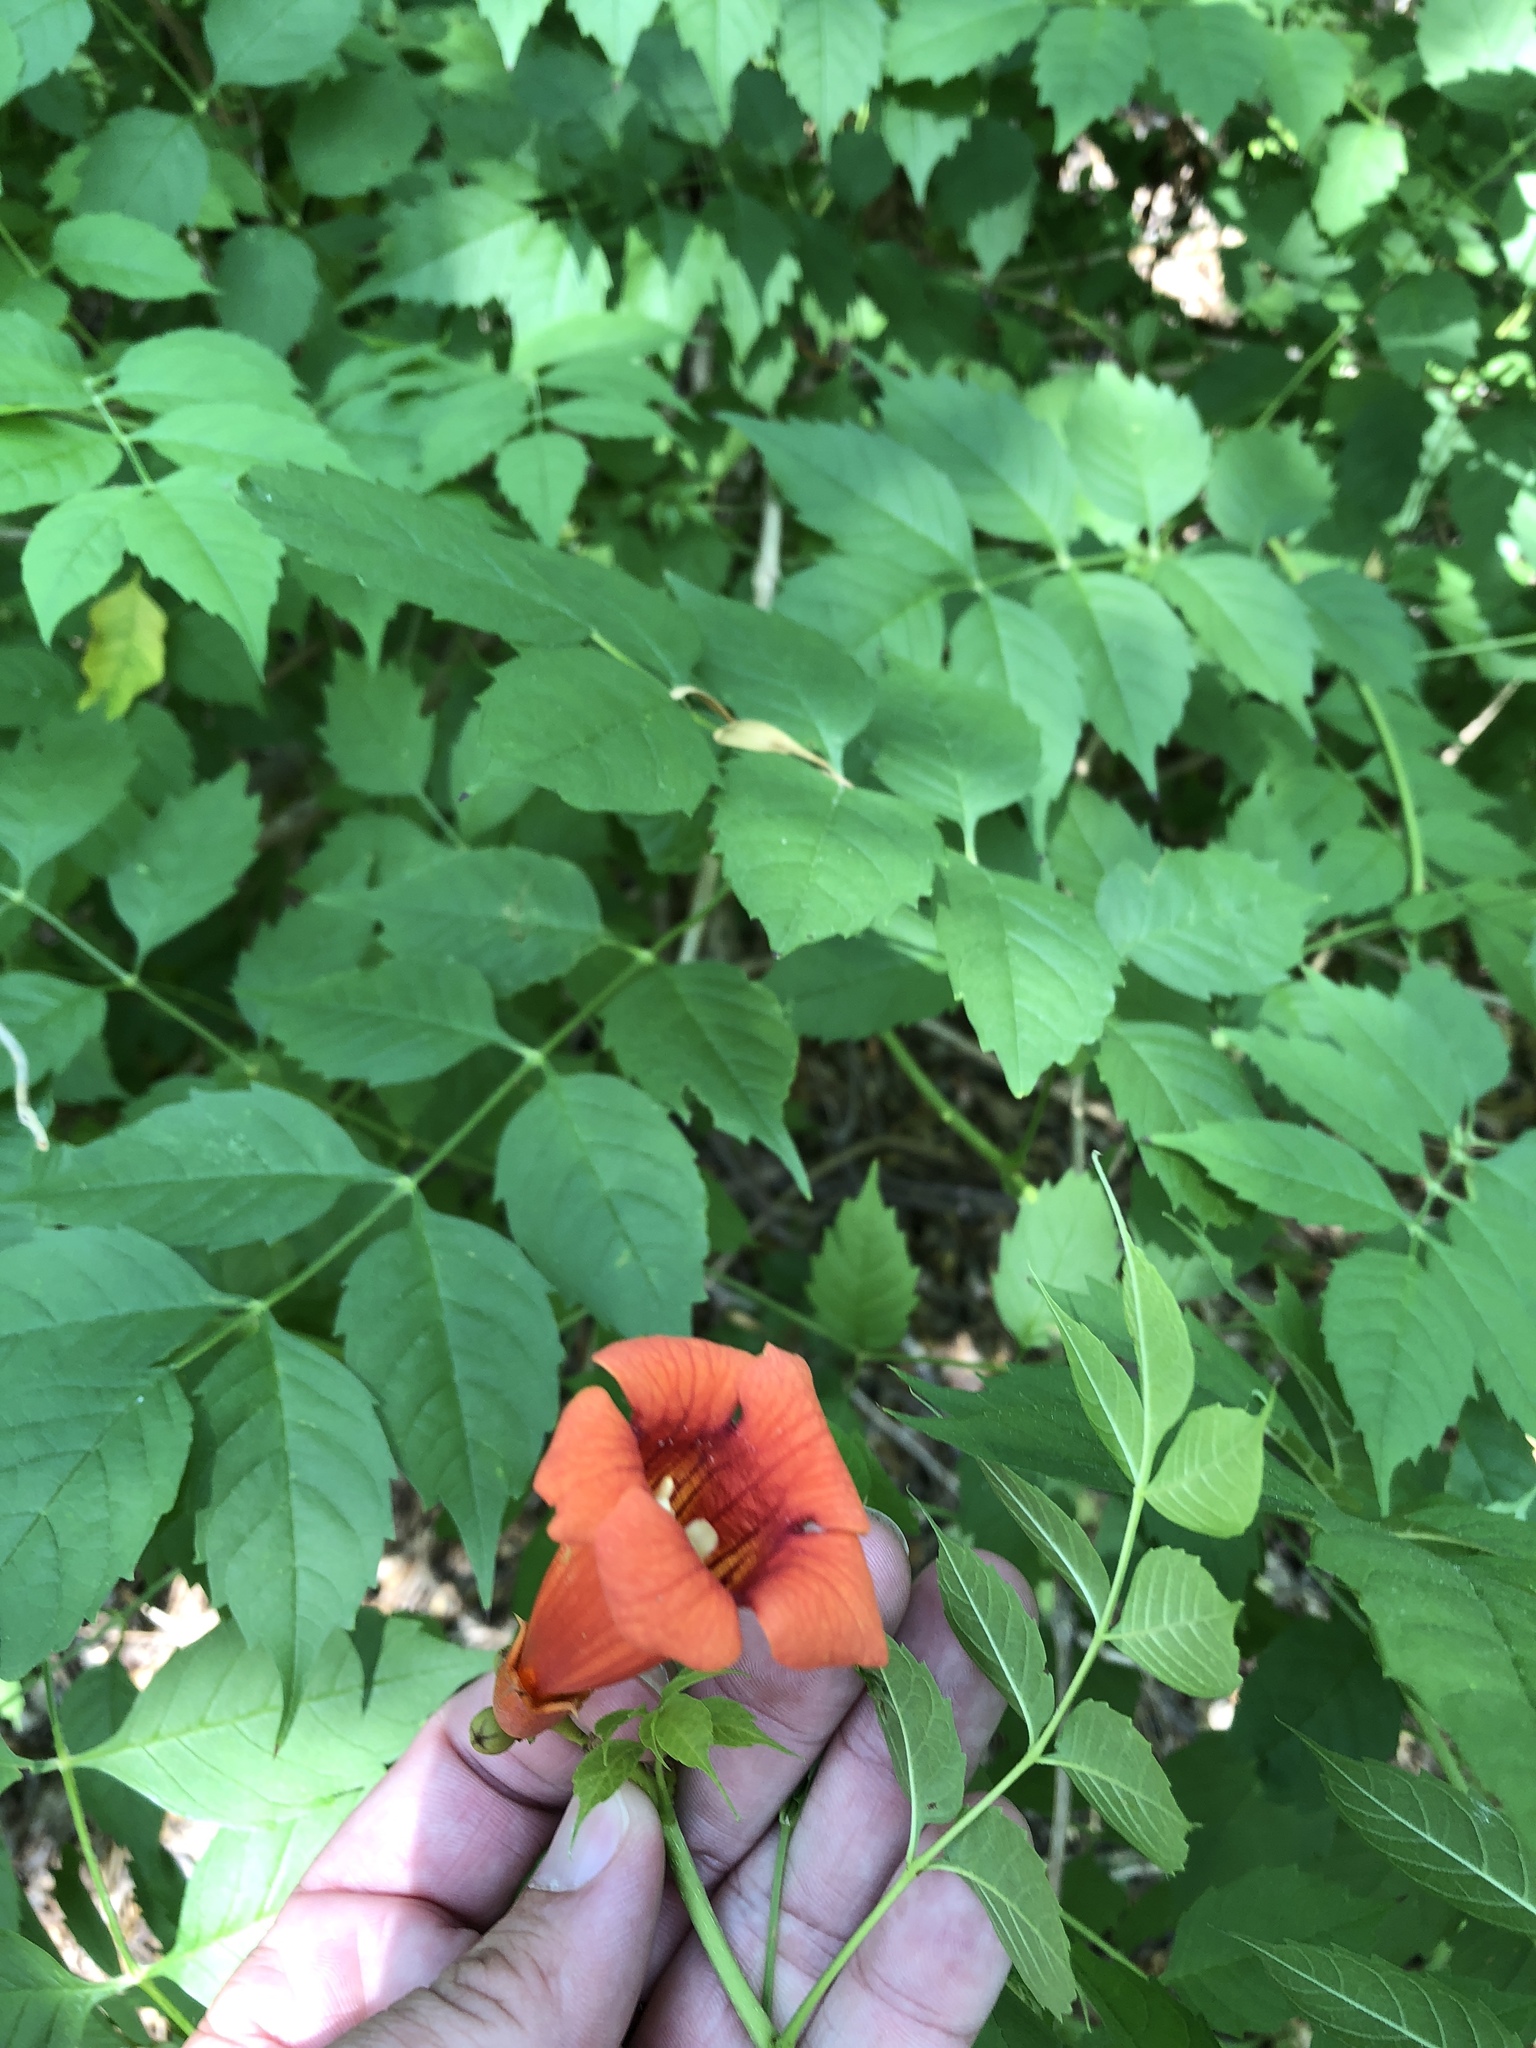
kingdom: Plantae
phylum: Tracheophyta
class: Magnoliopsida
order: Lamiales
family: Bignoniaceae
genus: Campsis
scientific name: Campsis radicans
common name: Trumpet-creeper
